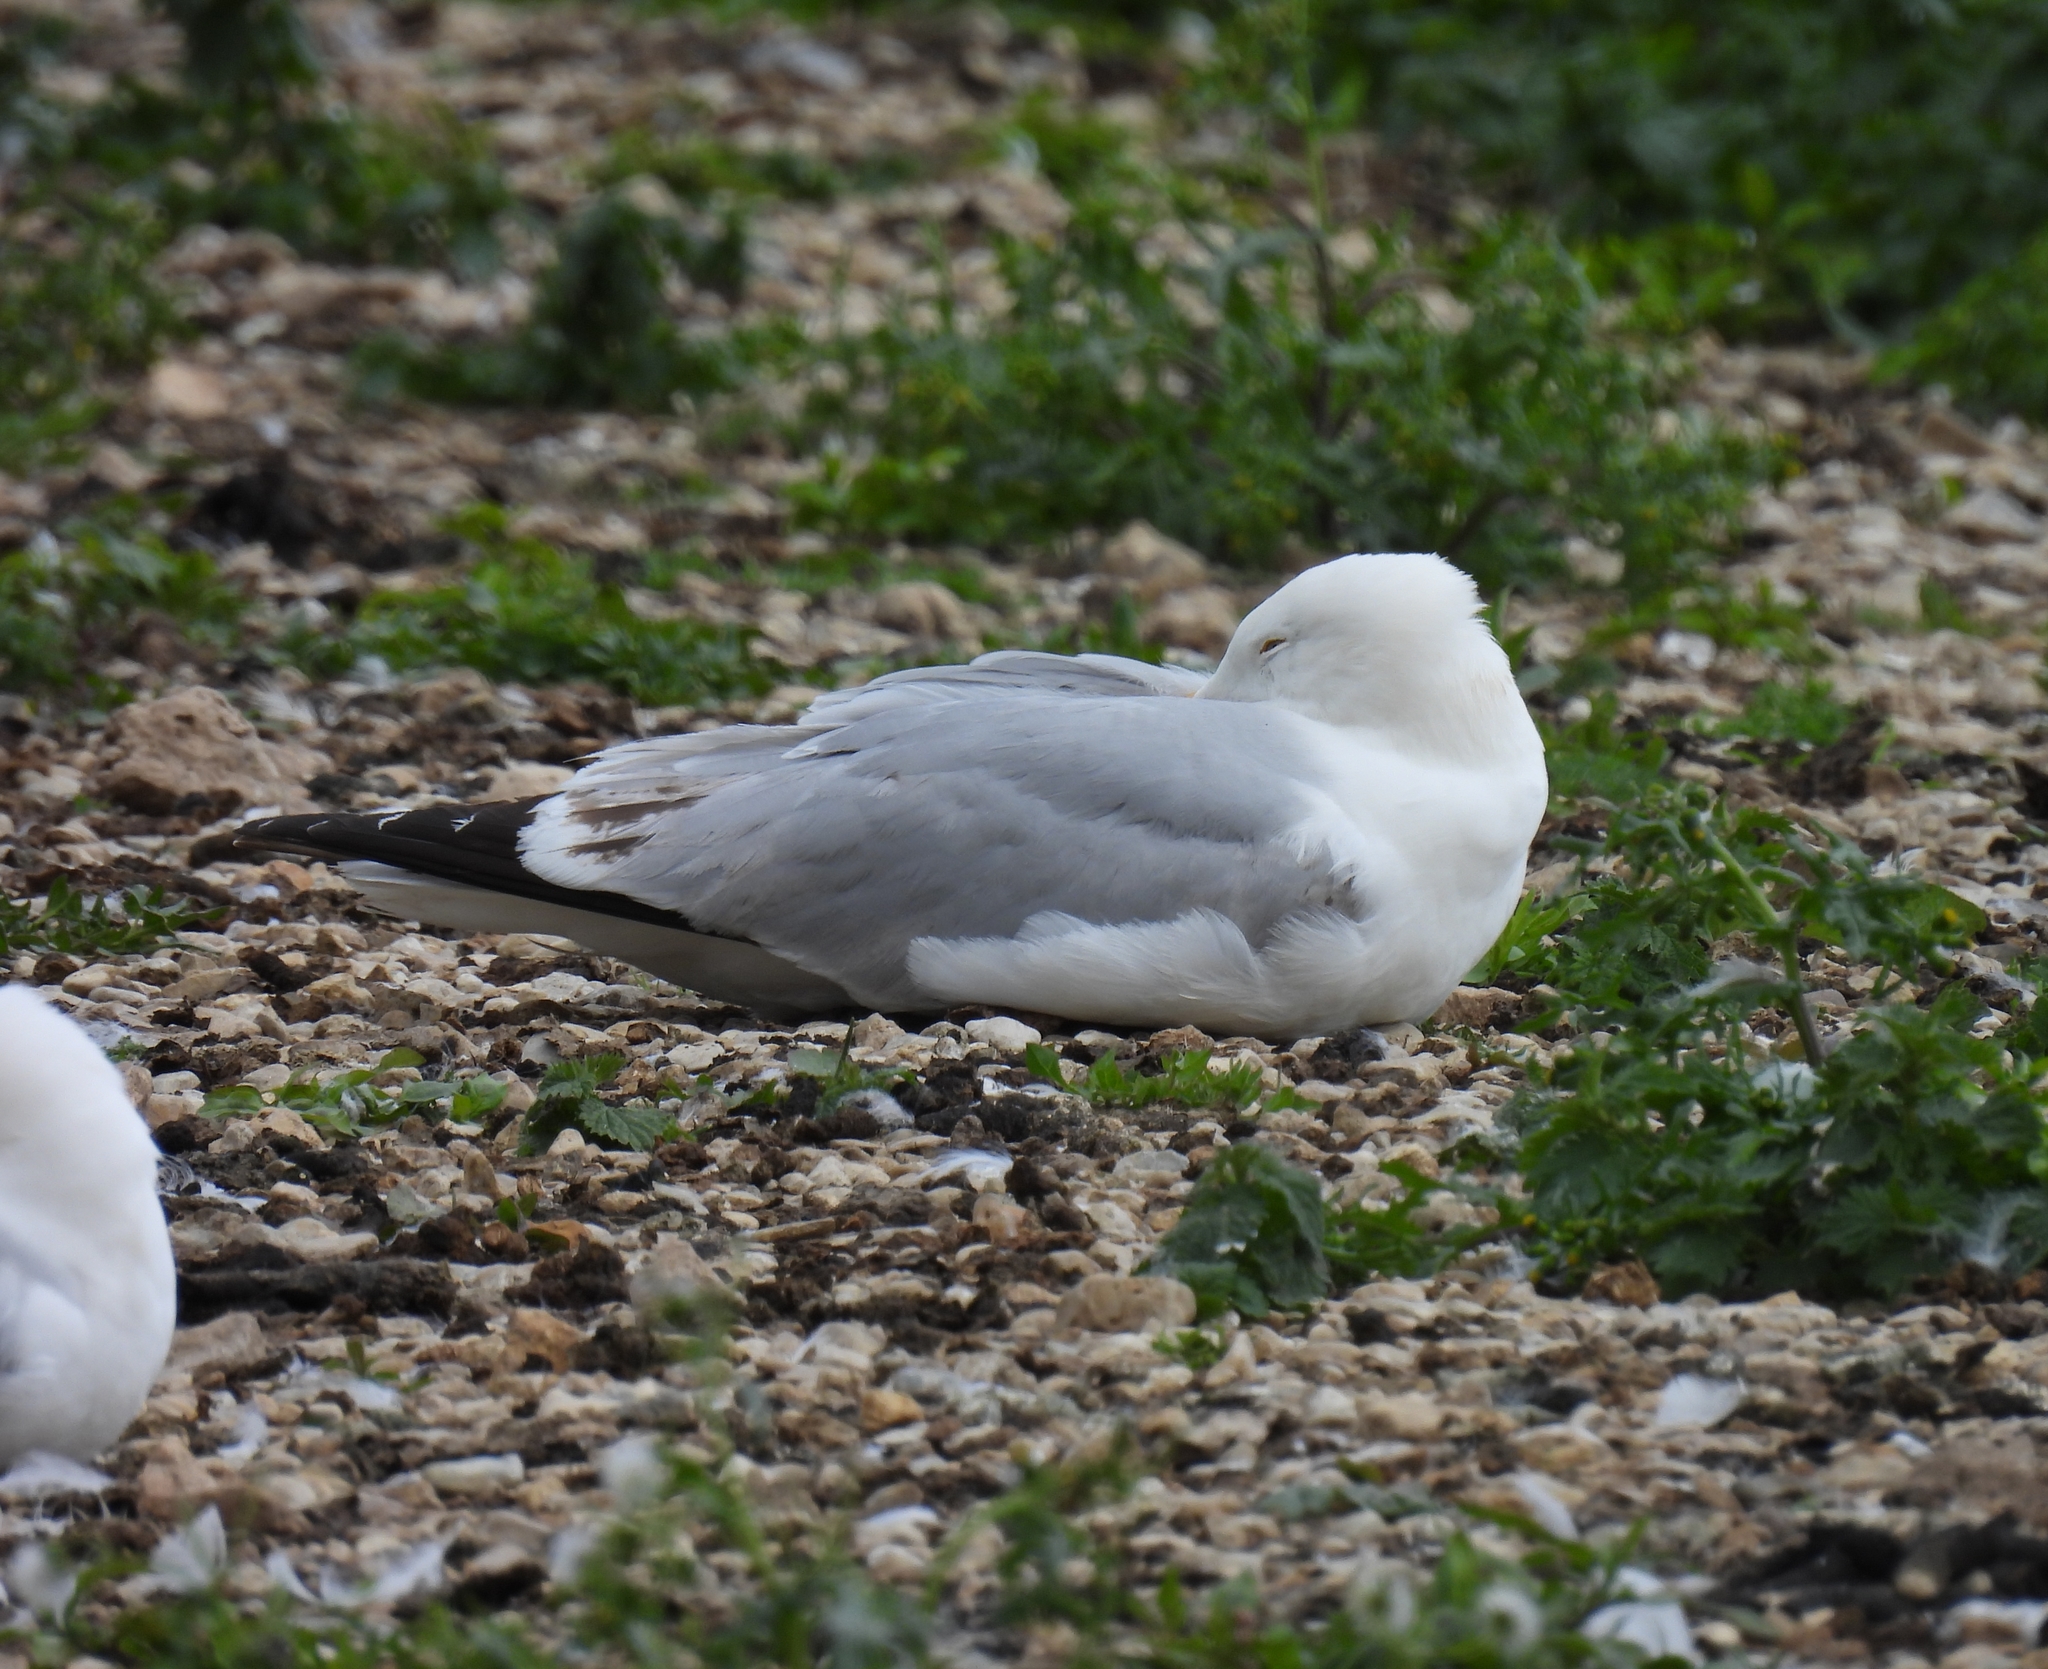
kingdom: Animalia
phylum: Chordata
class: Aves
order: Charadriiformes
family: Laridae
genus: Larus
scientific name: Larus argentatus
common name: Herring gull
